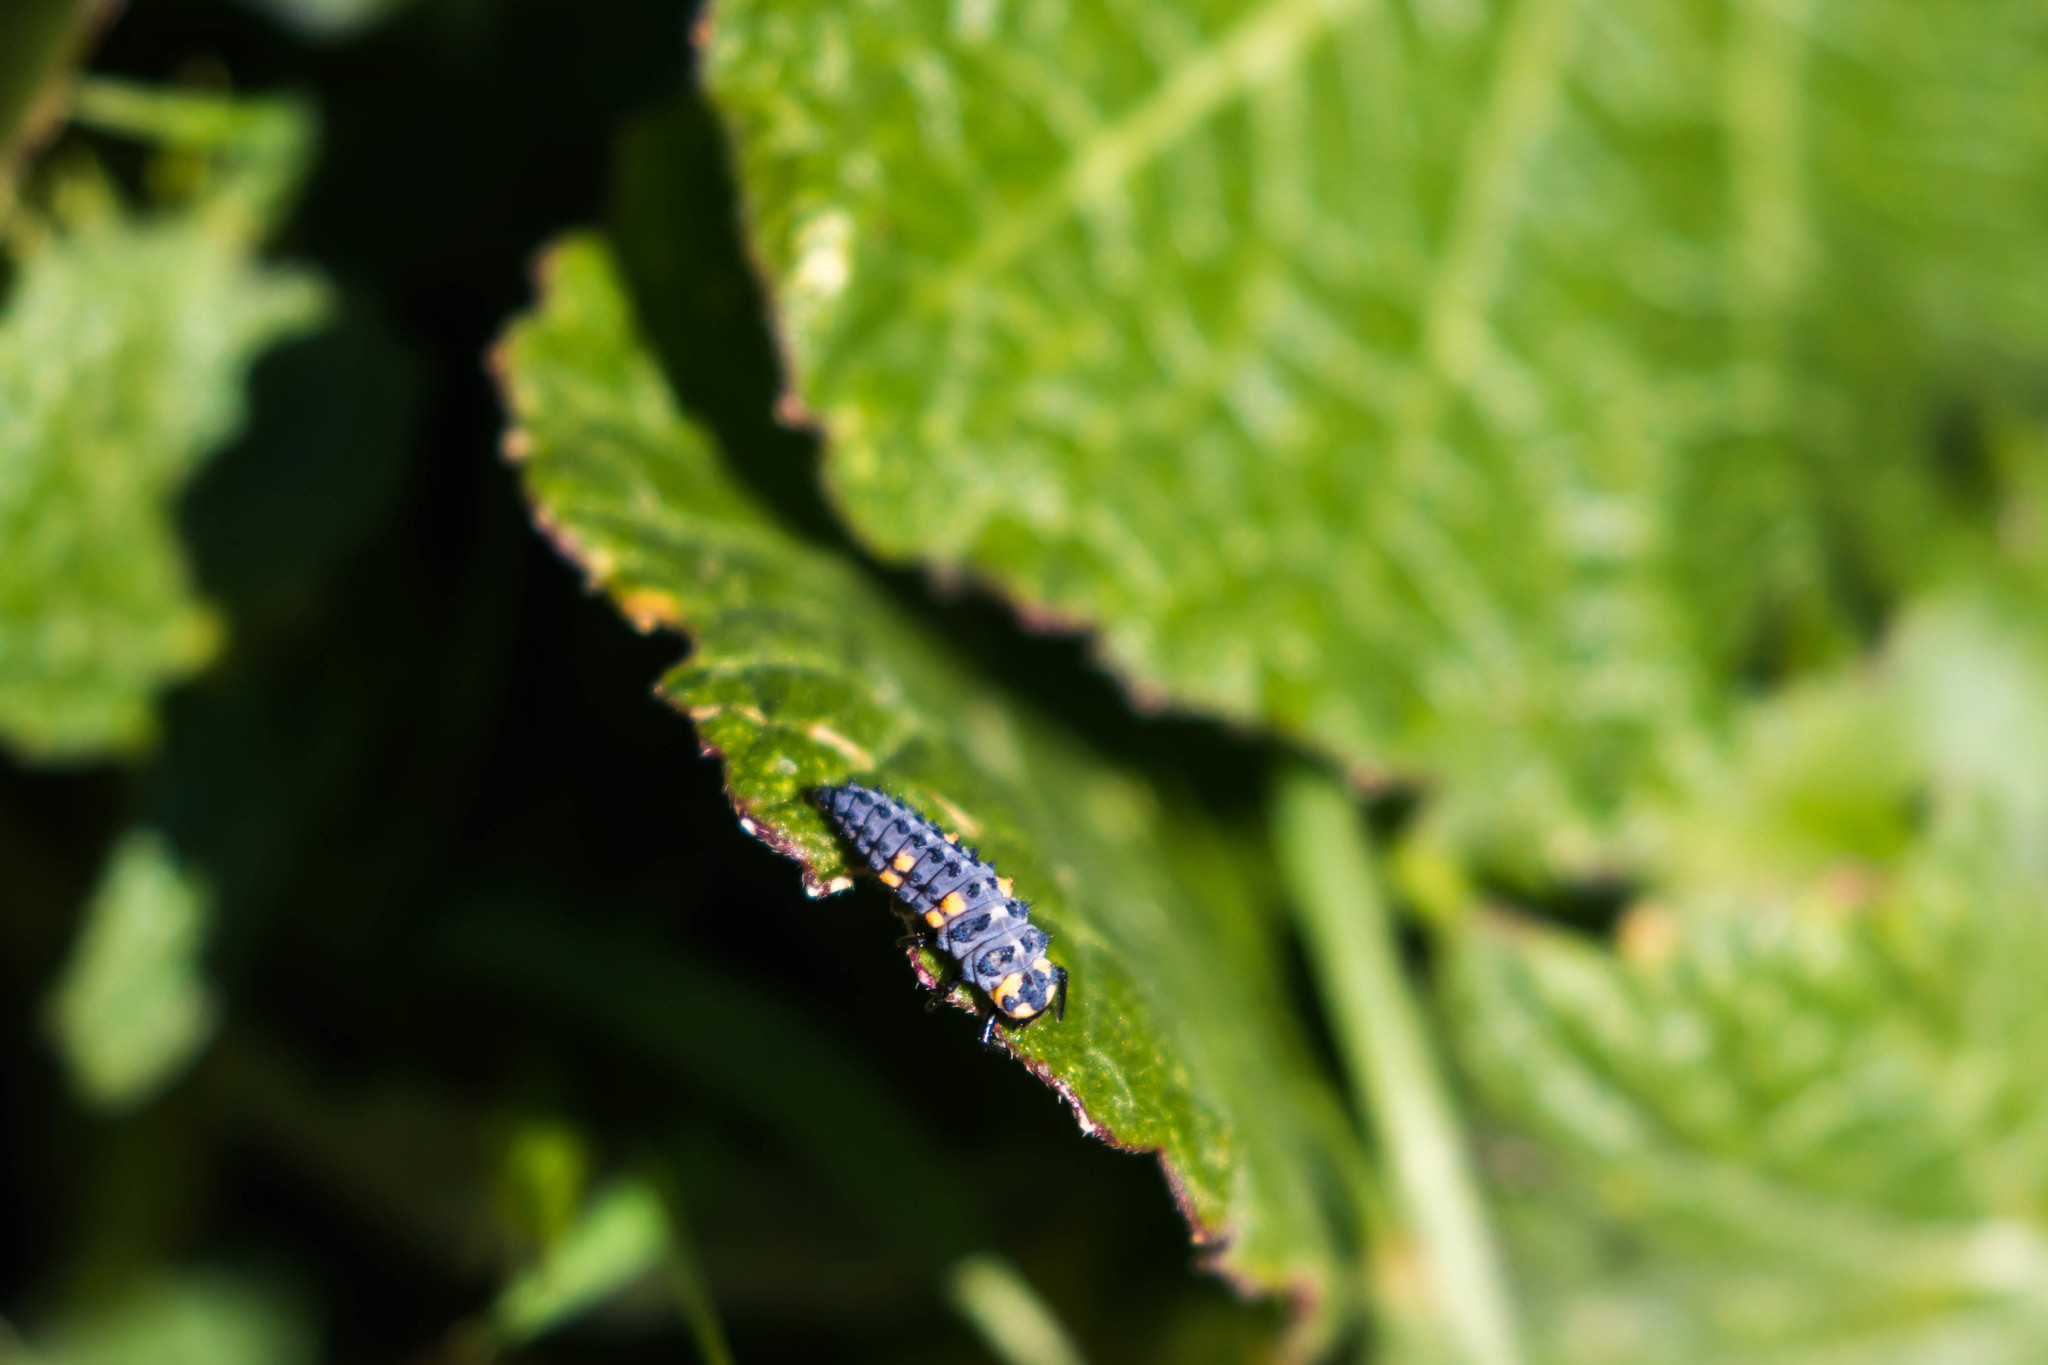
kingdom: Animalia
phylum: Arthropoda
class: Insecta
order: Coleoptera
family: Coccinellidae
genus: Coccinella
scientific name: Coccinella septempunctata
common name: Sevenspotted lady beetle
